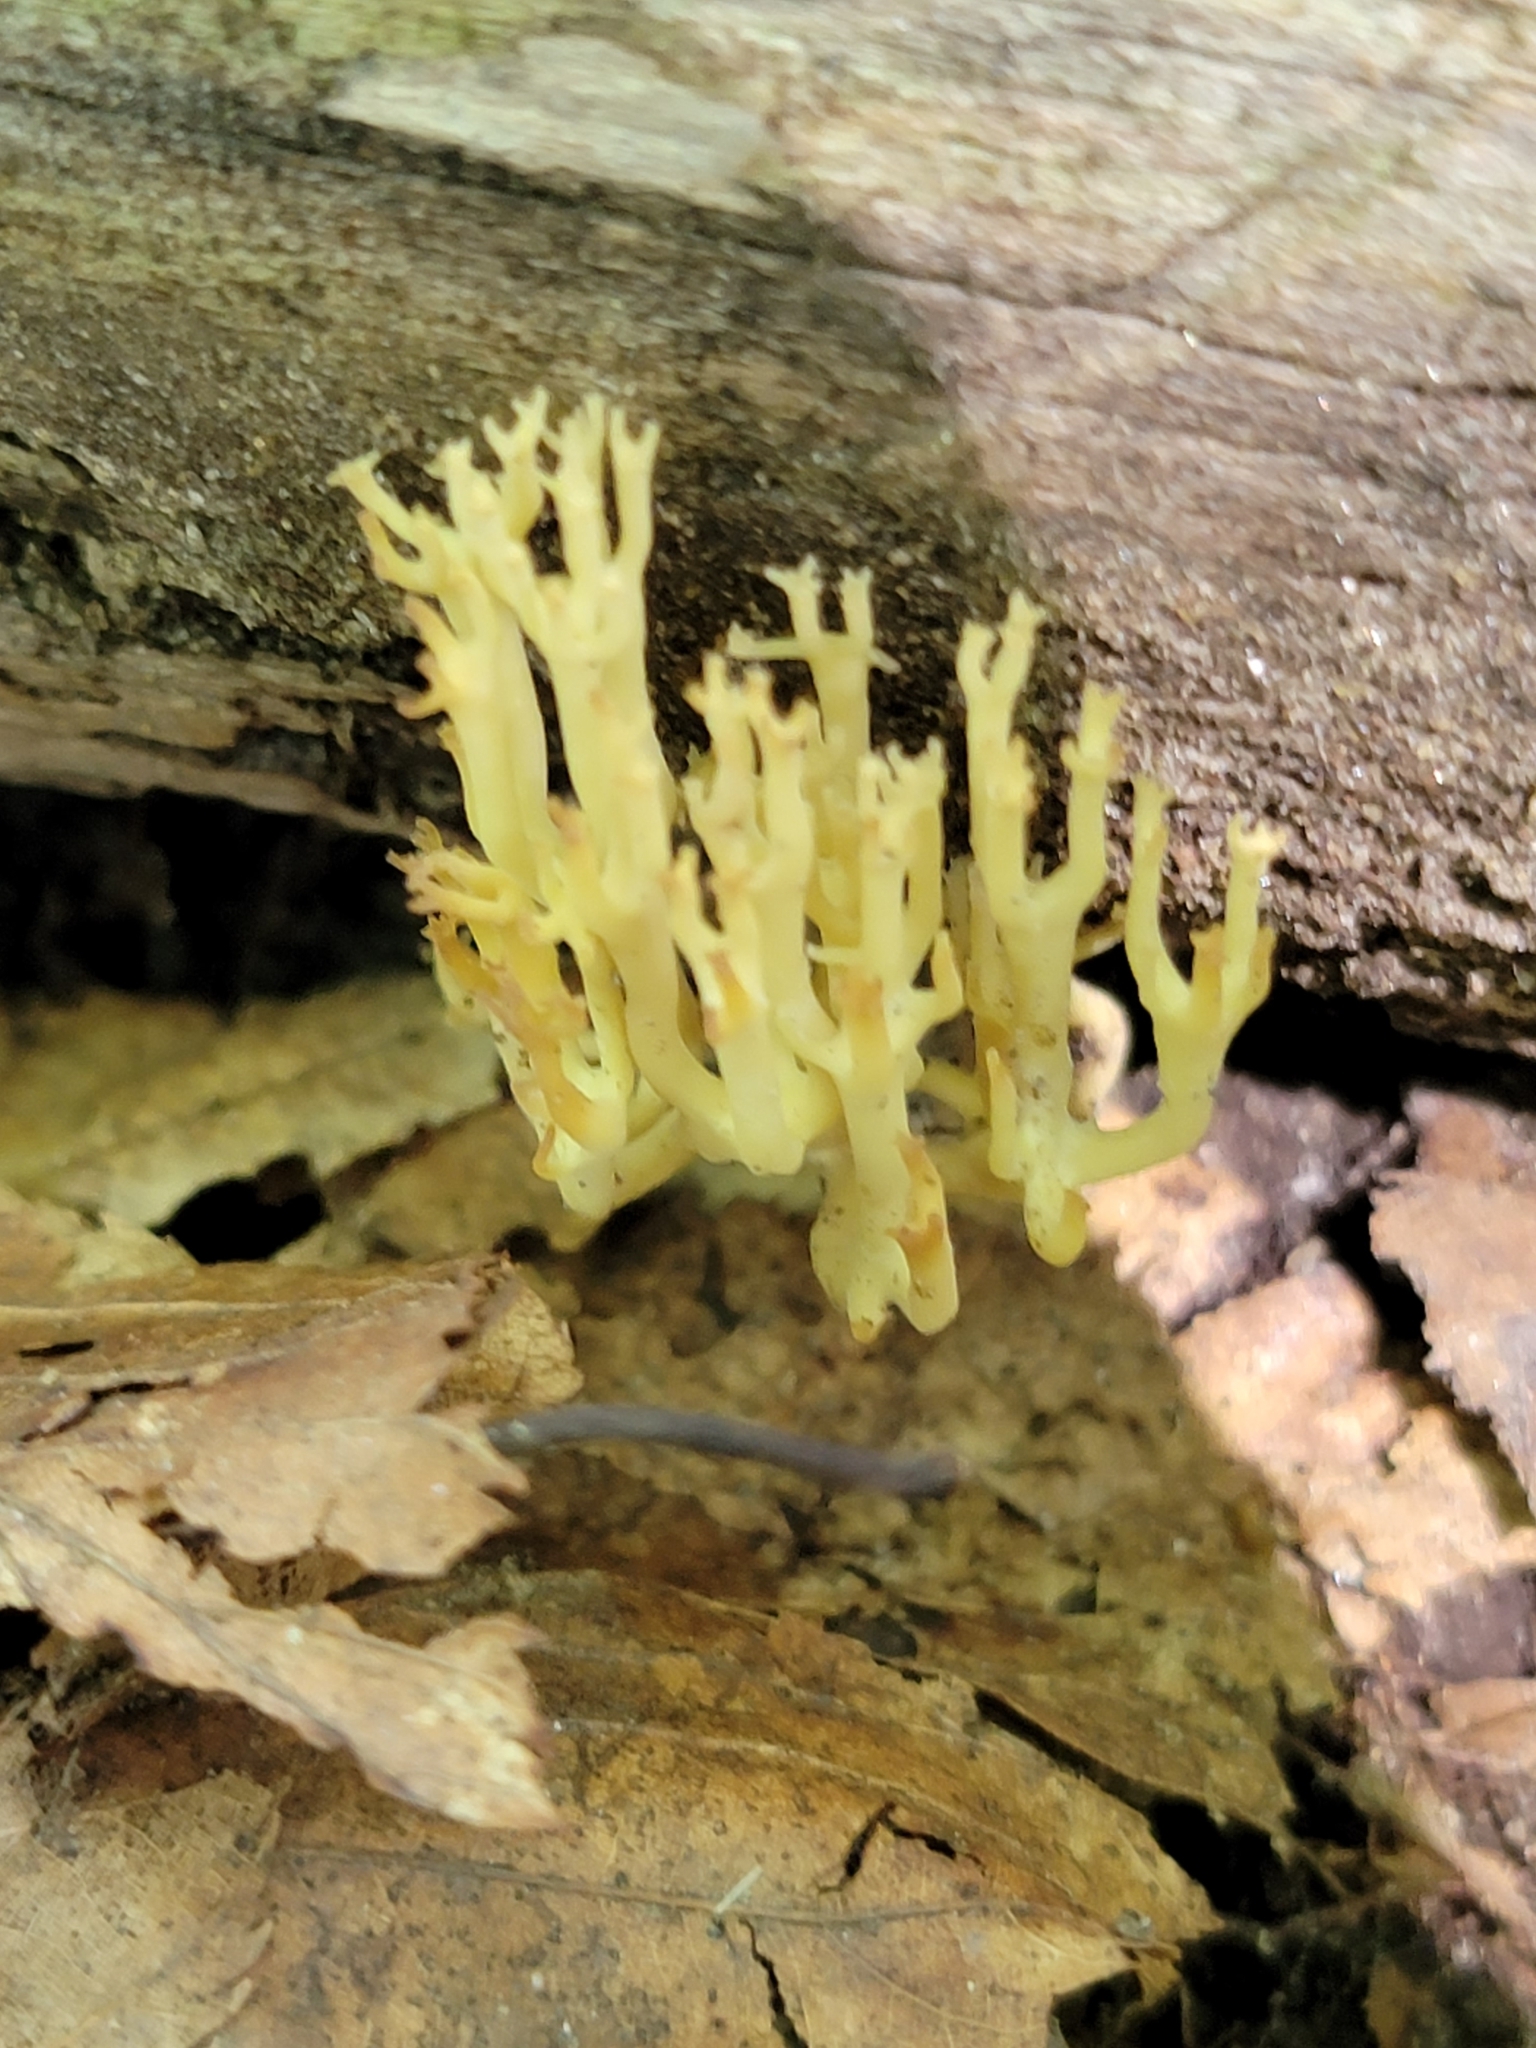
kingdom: Fungi
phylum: Basidiomycota
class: Agaricomycetes
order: Russulales
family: Auriscalpiaceae
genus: Artomyces
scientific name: Artomyces pyxidatus
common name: Crown-tipped coral fungus
